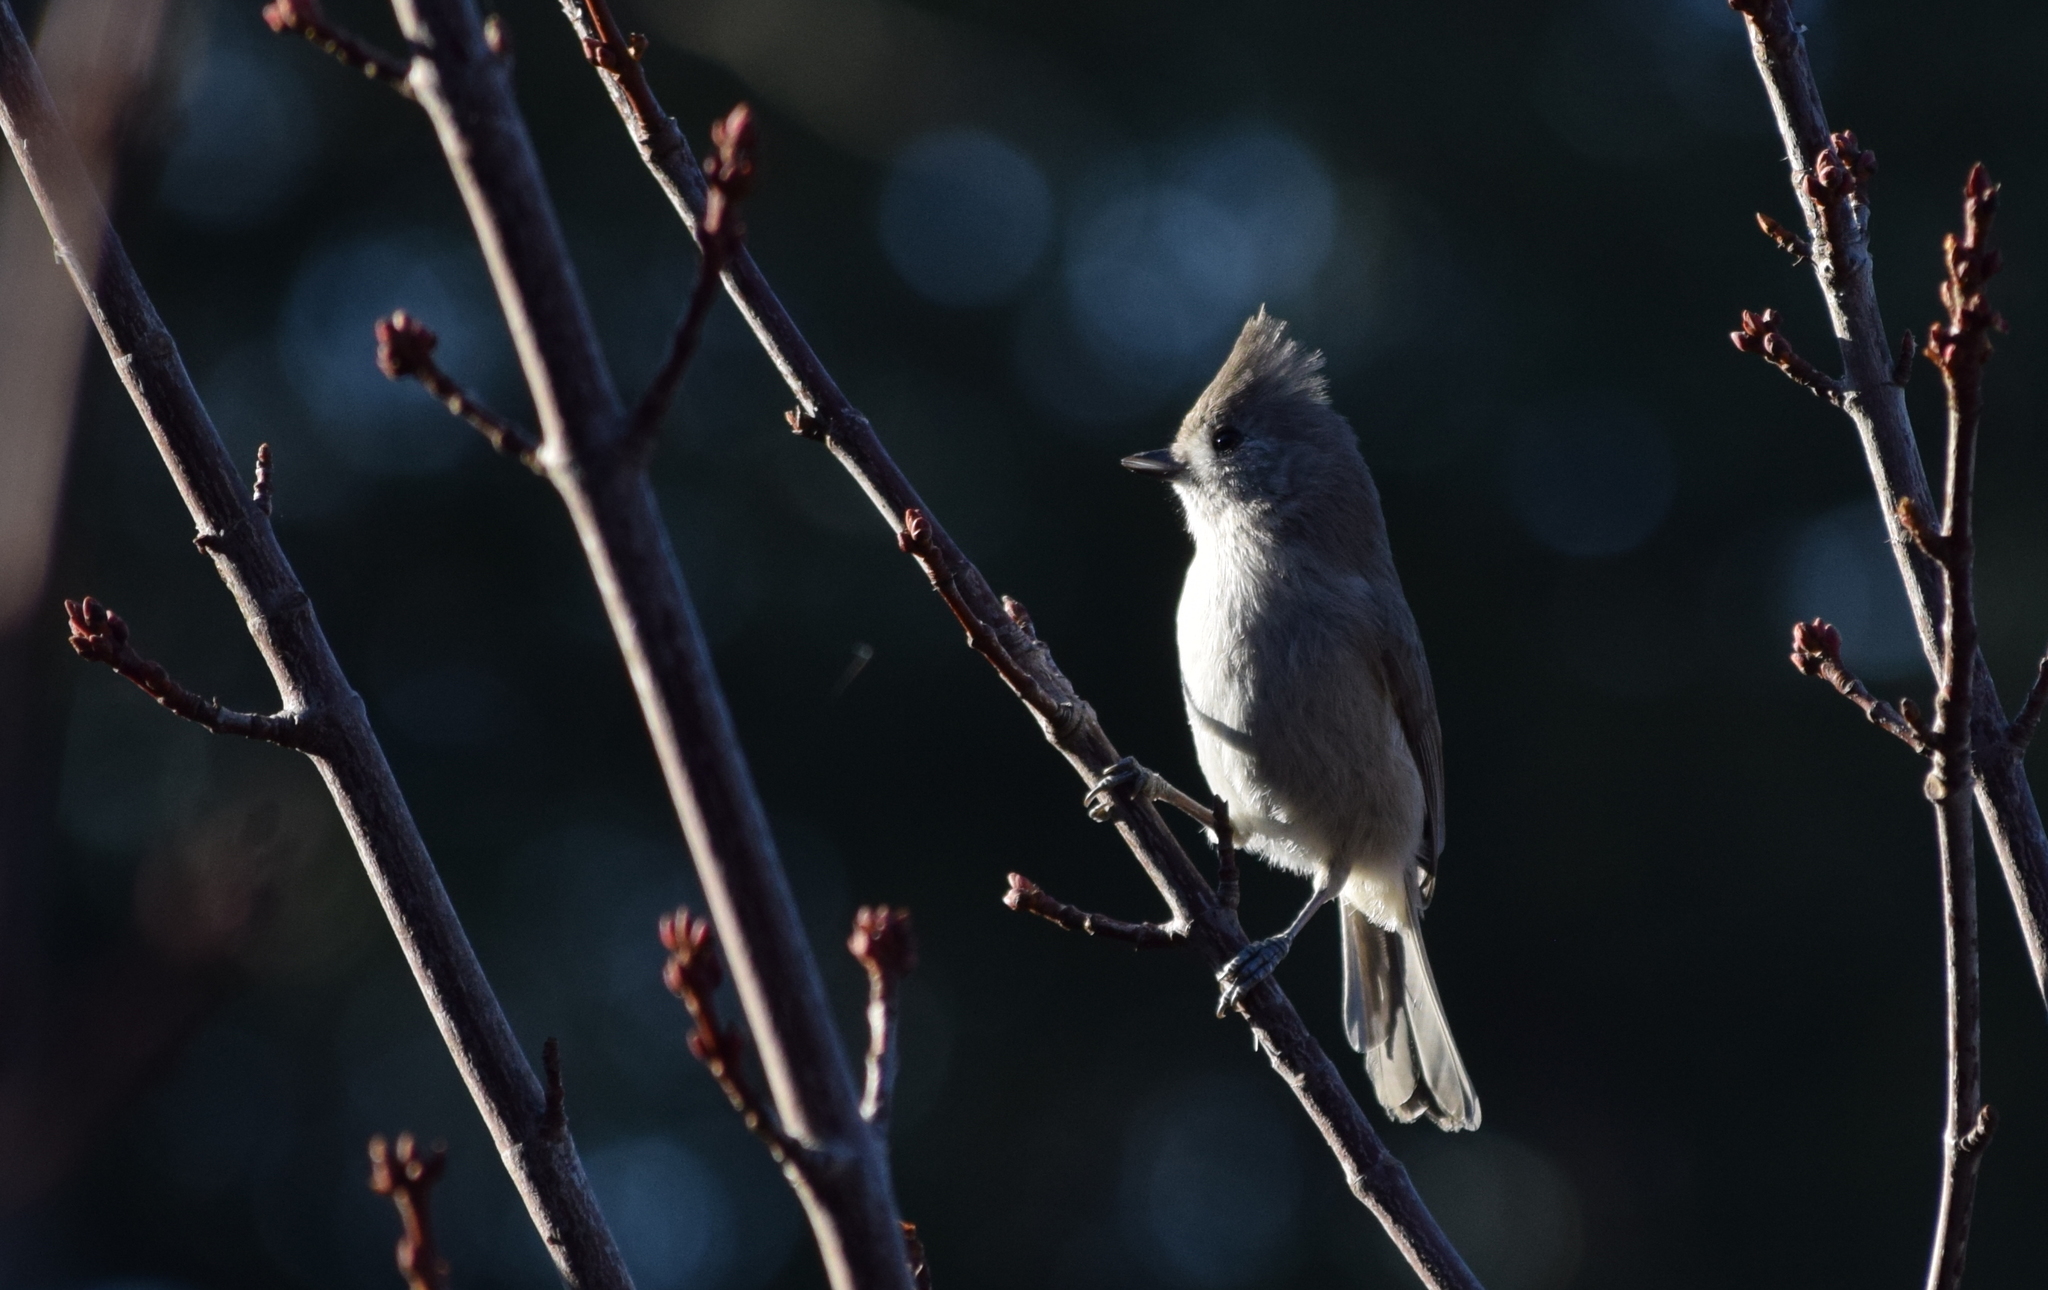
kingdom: Animalia
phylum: Chordata
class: Aves
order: Passeriformes
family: Paridae
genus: Baeolophus
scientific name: Baeolophus inornatus
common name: Oak titmouse
